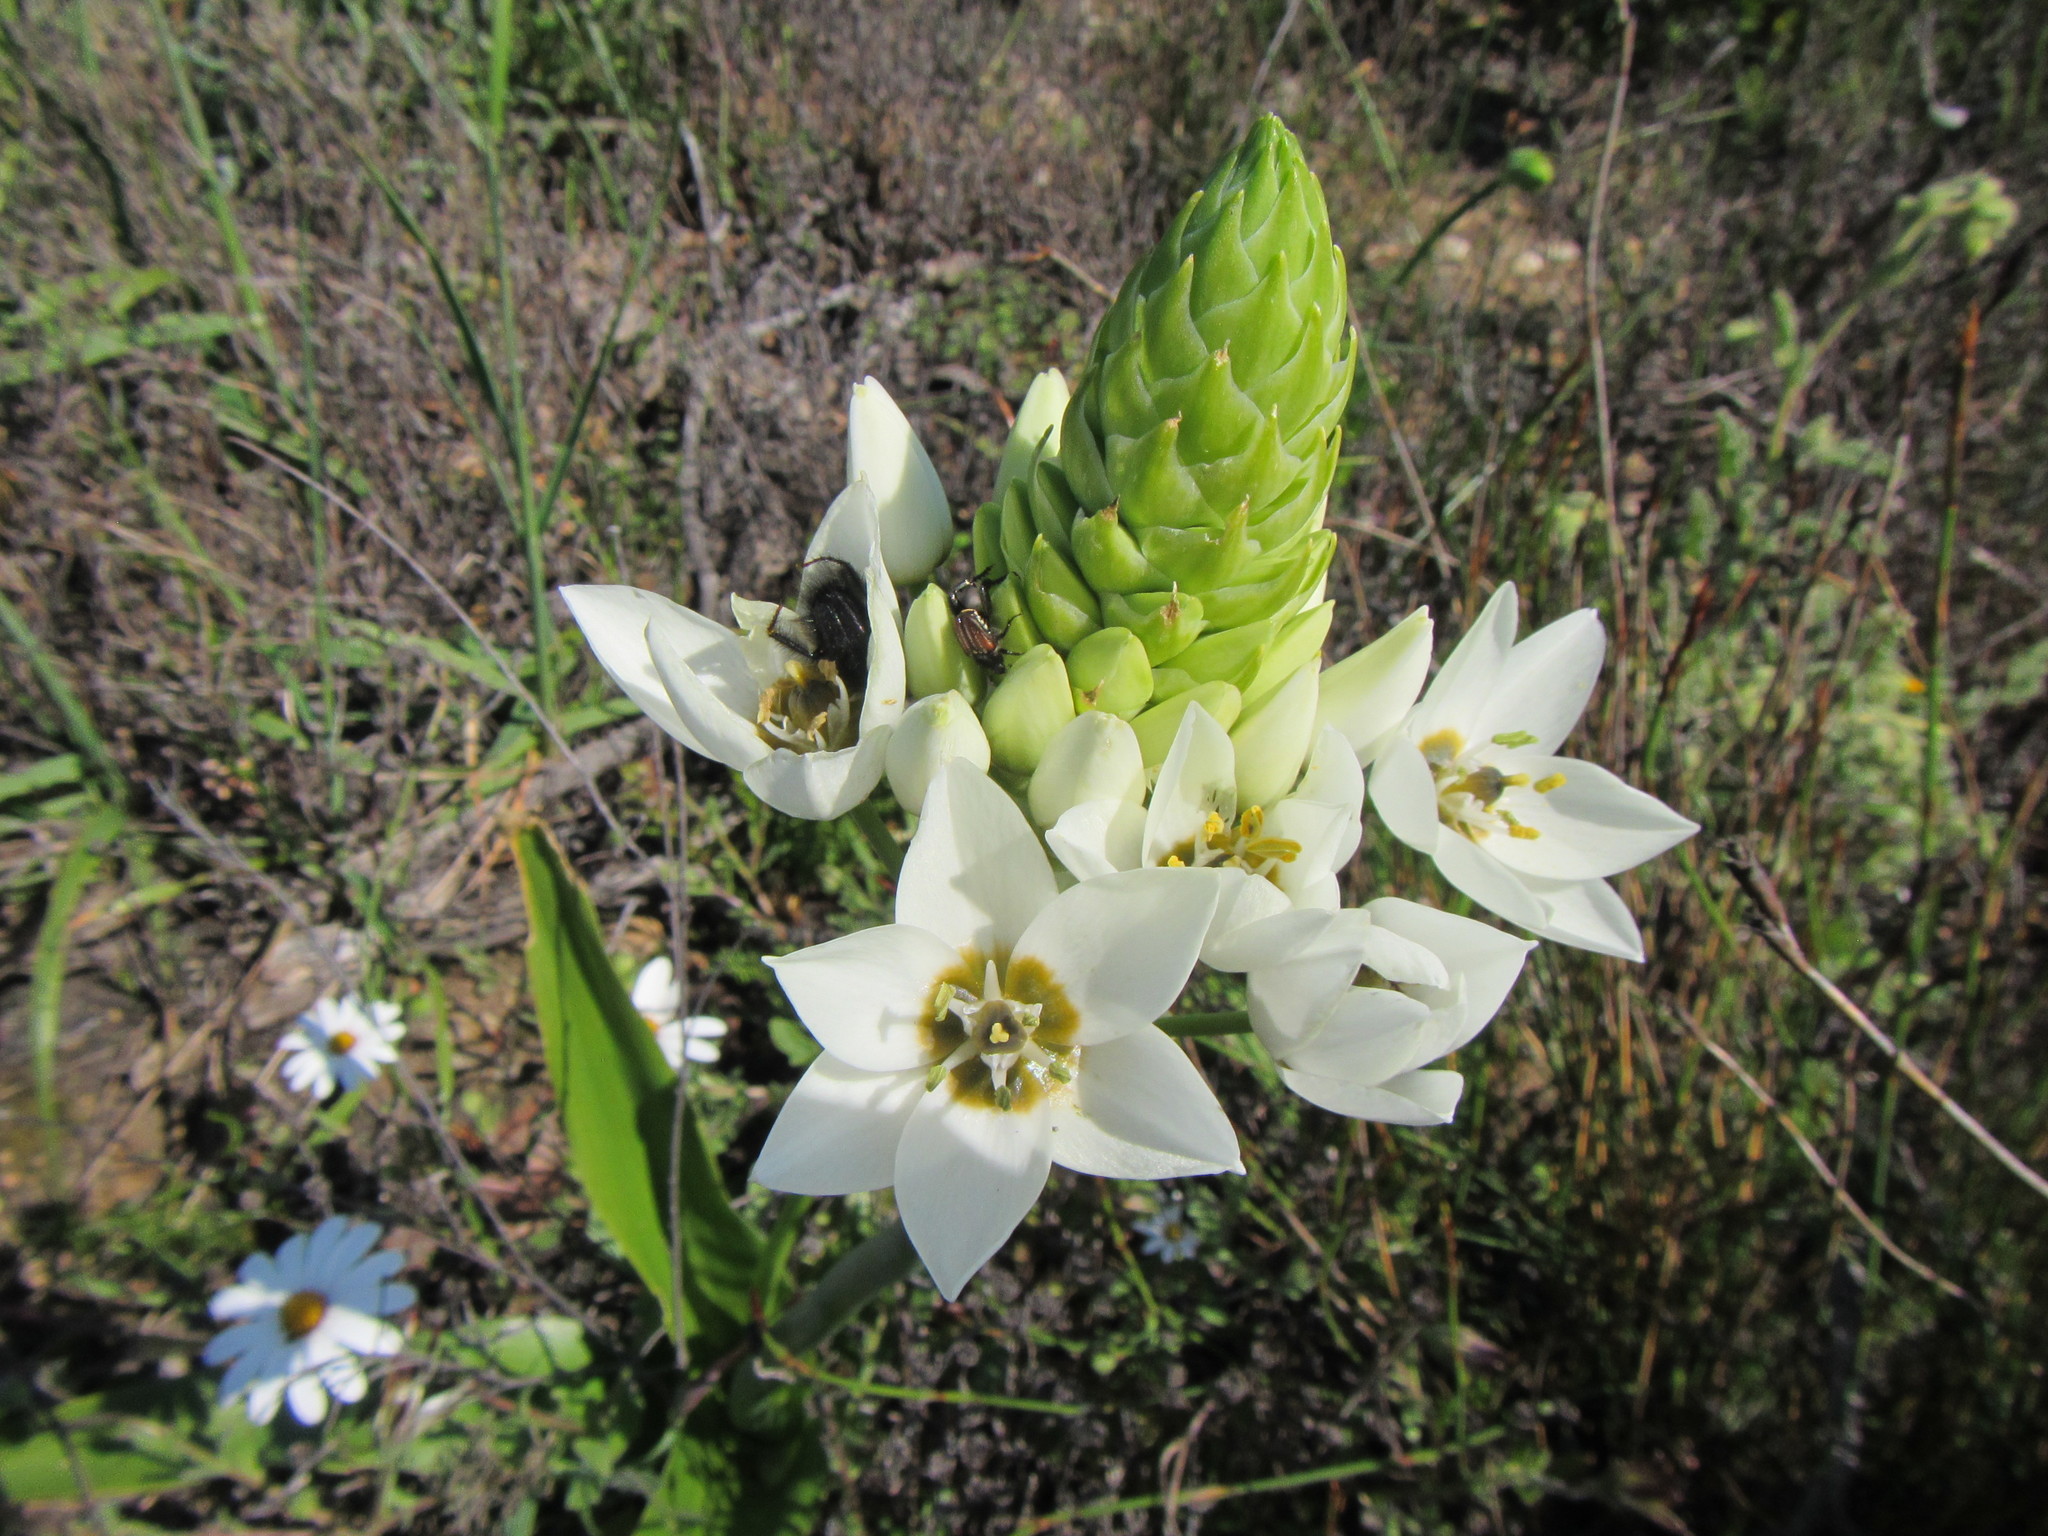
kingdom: Plantae
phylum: Tracheophyta
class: Liliopsida
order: Asparagales
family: Asparagaceae
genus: Ornithogalum
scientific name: Ornithogalum thyrsoides
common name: Chincherinchee
